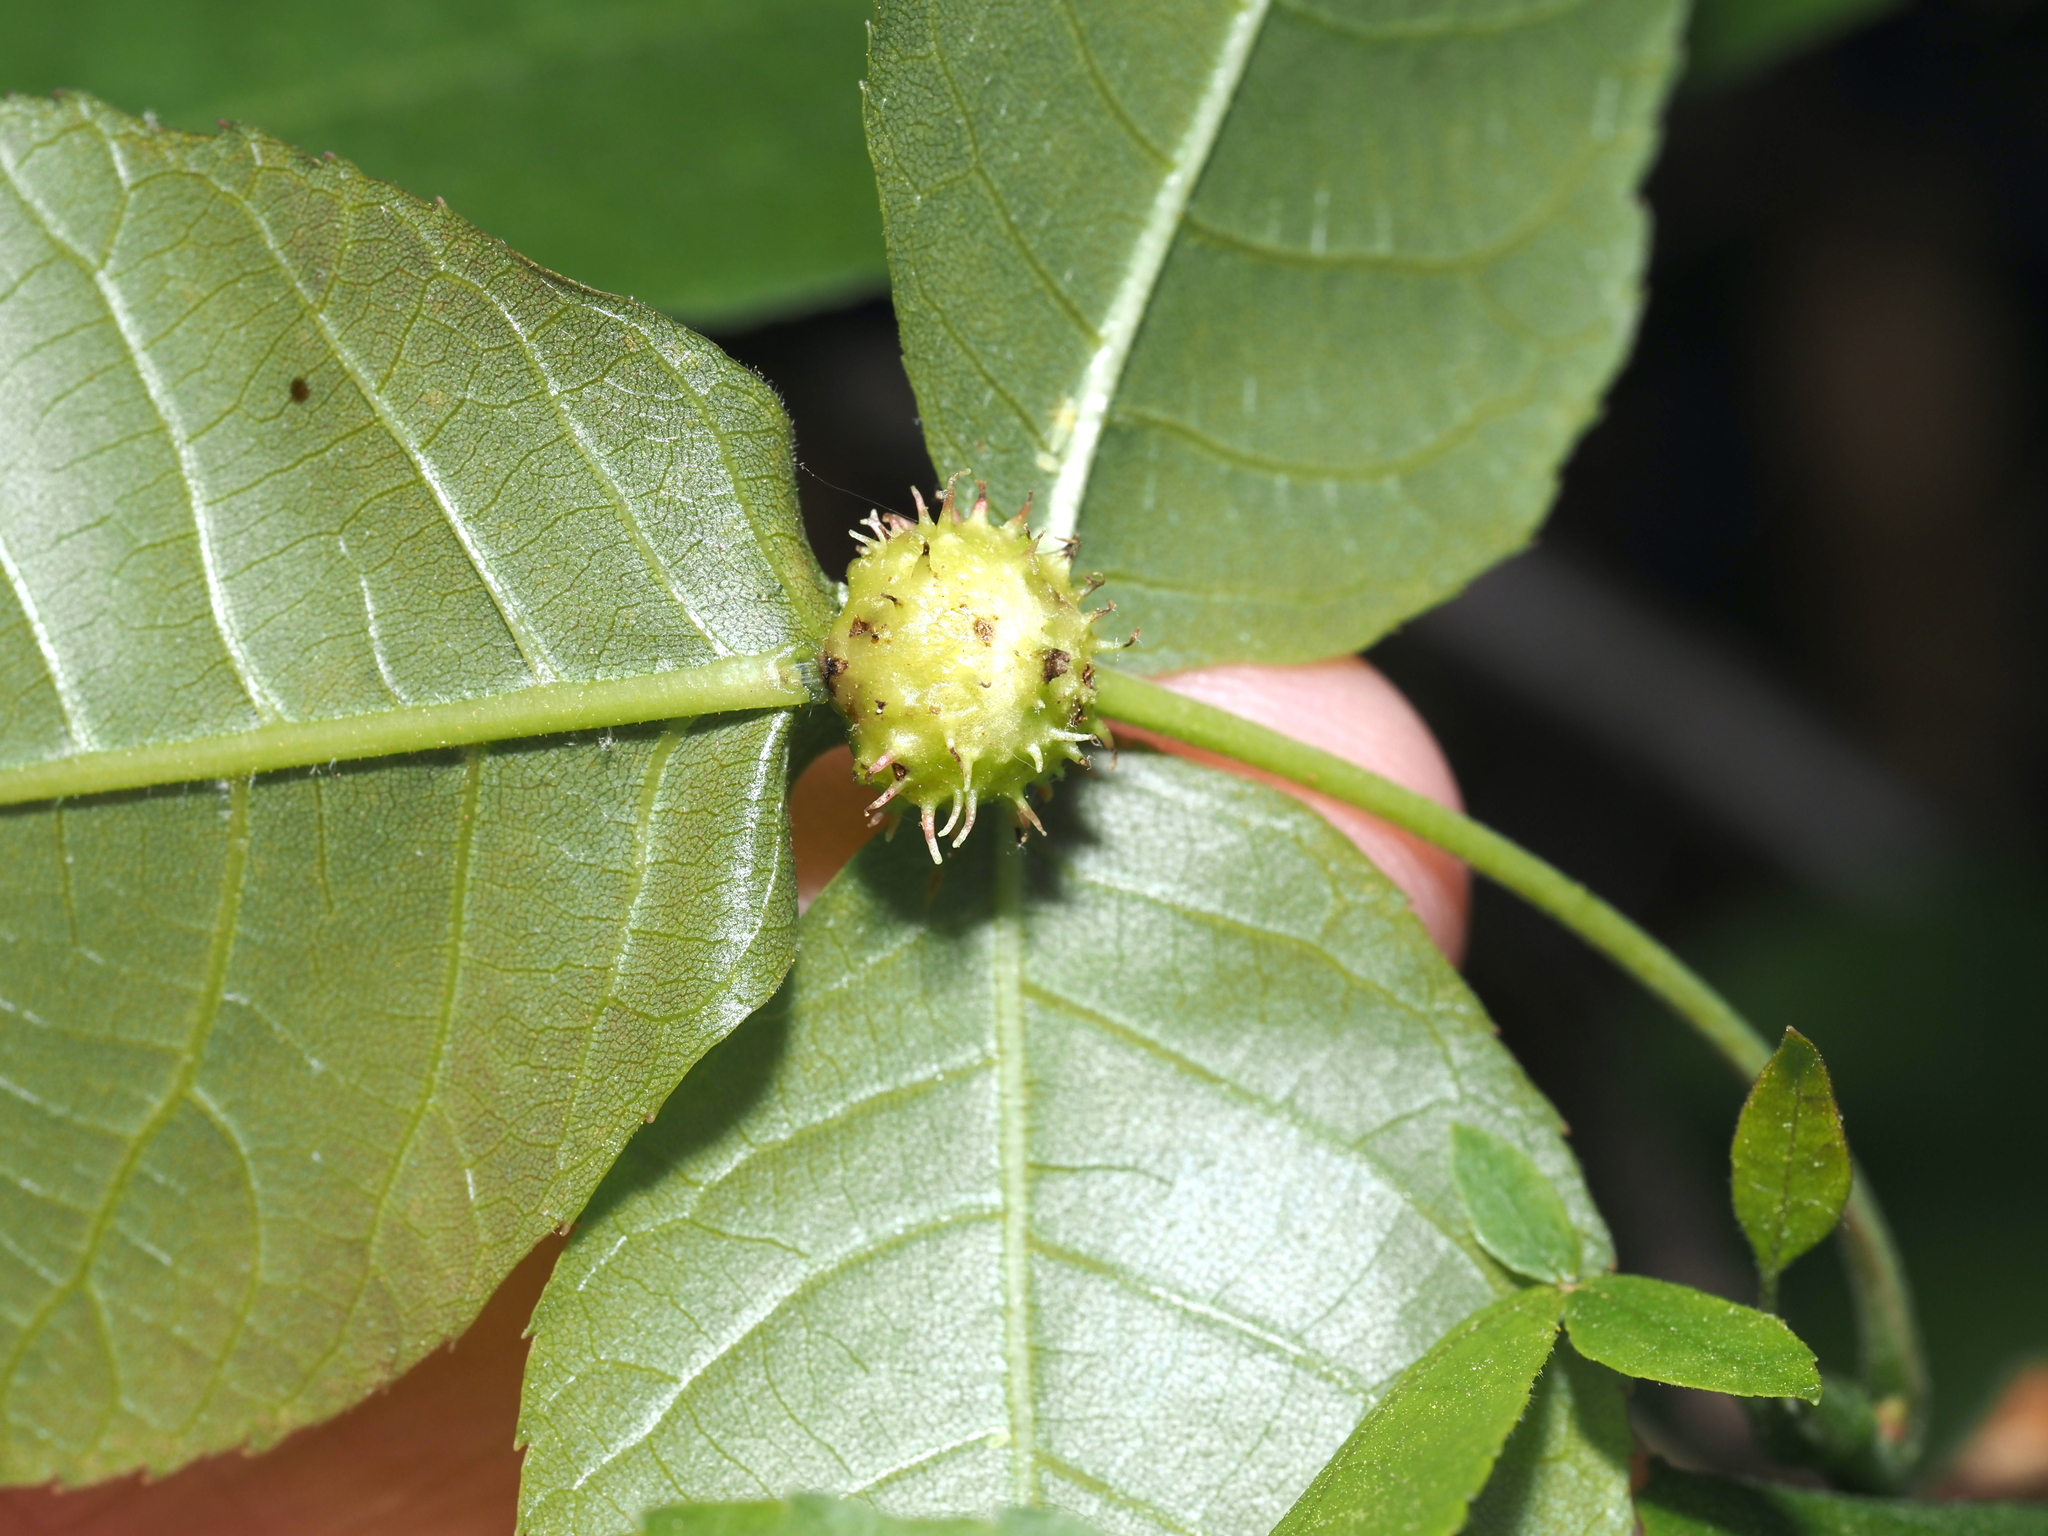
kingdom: Animalia
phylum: Arthropoda
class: Insecta
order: Hemiptera
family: Phylloxeridae
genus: Phylloxera
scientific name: Phylloxera spinosa
